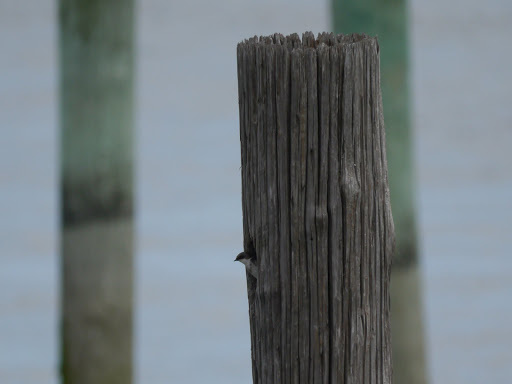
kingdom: Animalia
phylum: Chordata
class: Aves
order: Passeriformes
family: Hirundinidae
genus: Tachycineta
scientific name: Tachycineta bicolor
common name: Tree swallow
